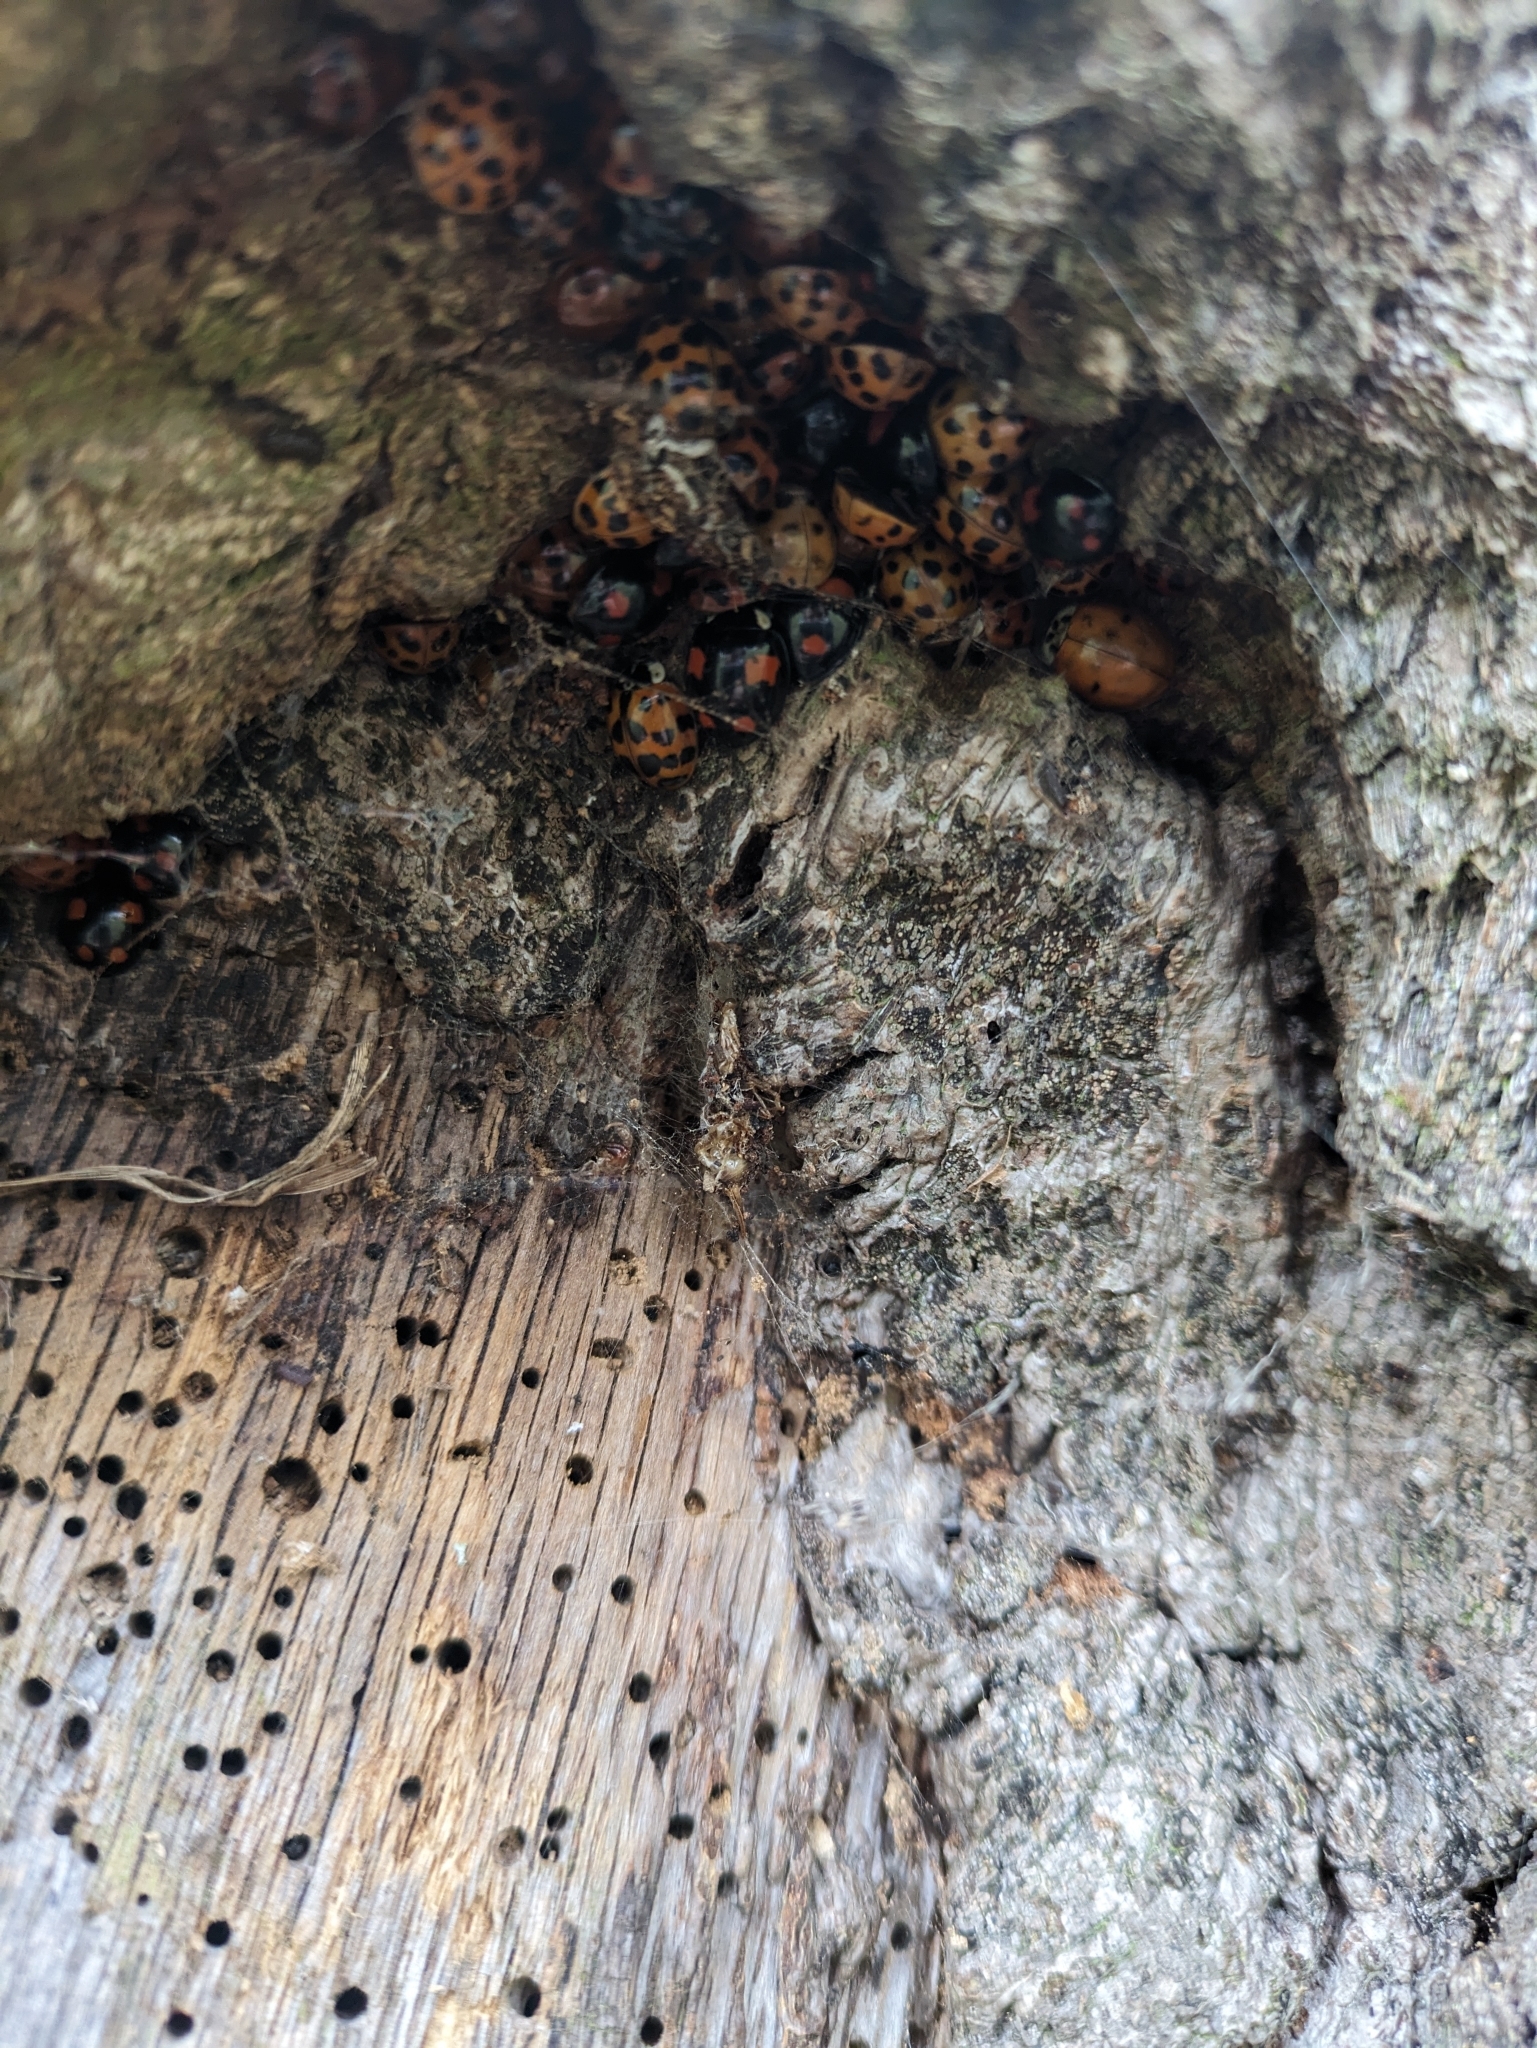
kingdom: Animalia
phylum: Arthropoda
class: Insecta
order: Coleoptera
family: Coccinellidae
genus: Harmonia
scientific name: Harmonia axyridis
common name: Harlequin ladybird
